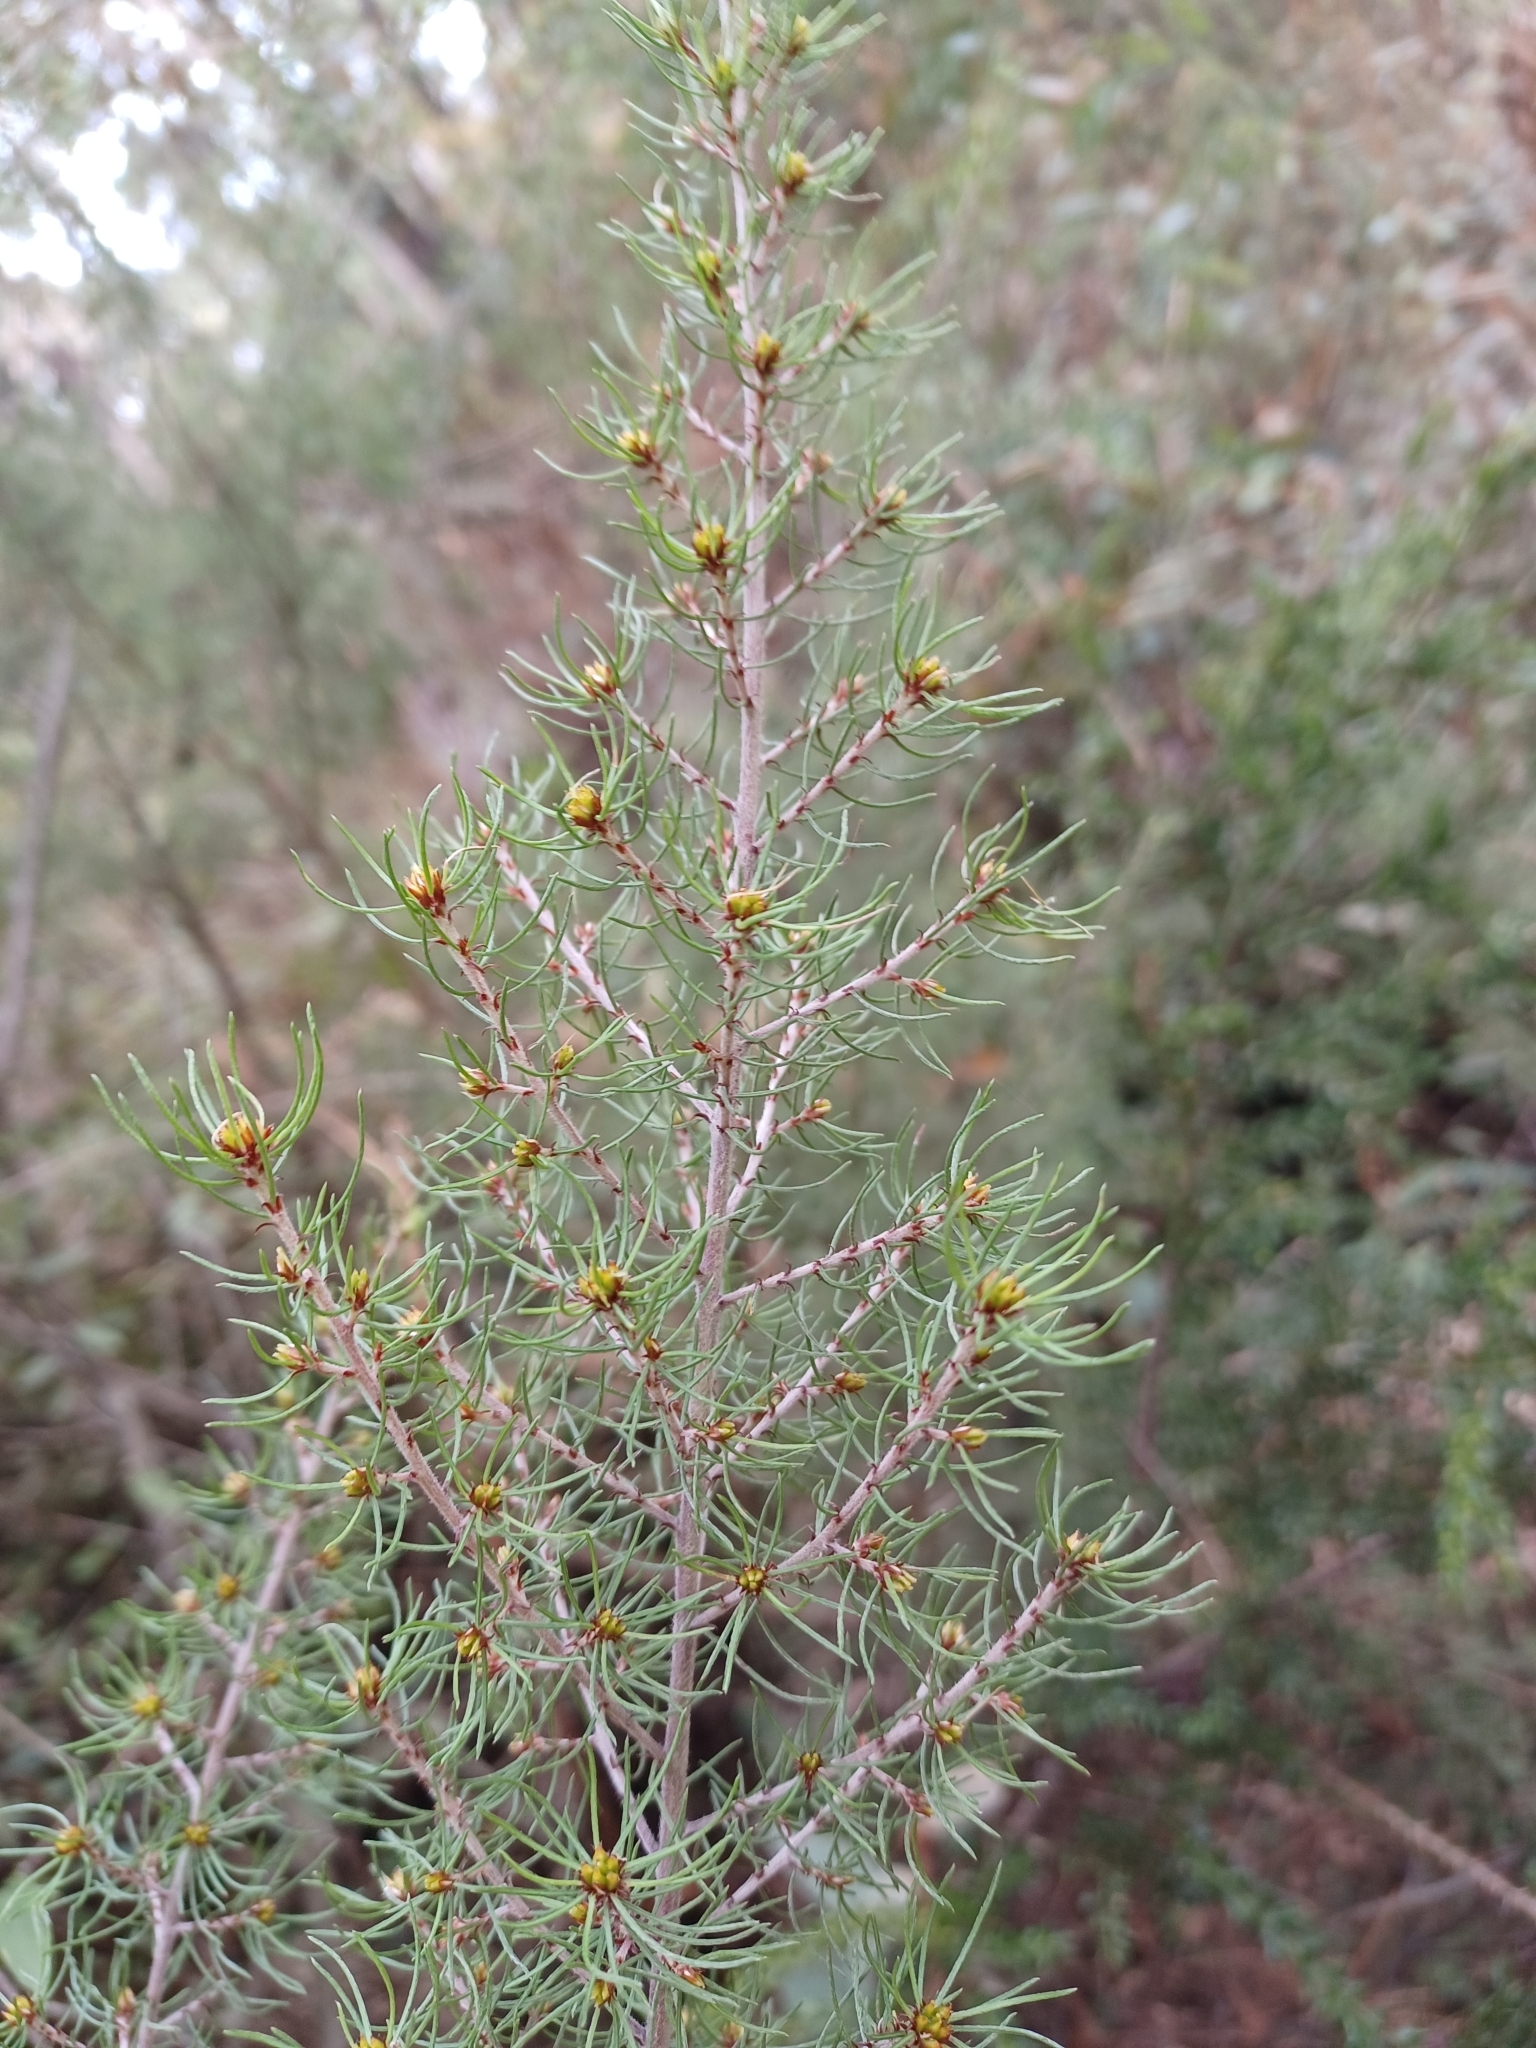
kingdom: Plantae
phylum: Tracheophyta
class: Magnoliopsida
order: Fabales
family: Fabaceae
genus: Pultenaea
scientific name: Pultenaea mollis
